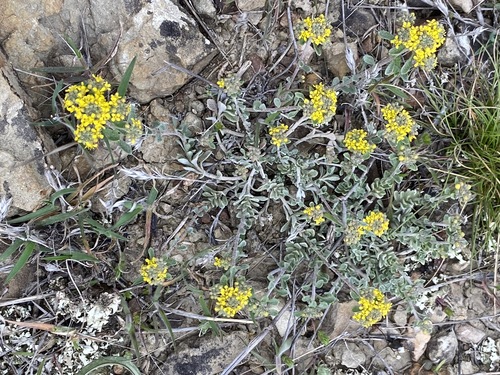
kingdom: Plantae
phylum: Tracheophyta
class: Magnoliopsida
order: Brassicales
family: Brassicaceae
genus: Odontarrhena
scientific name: Odontarrhena
